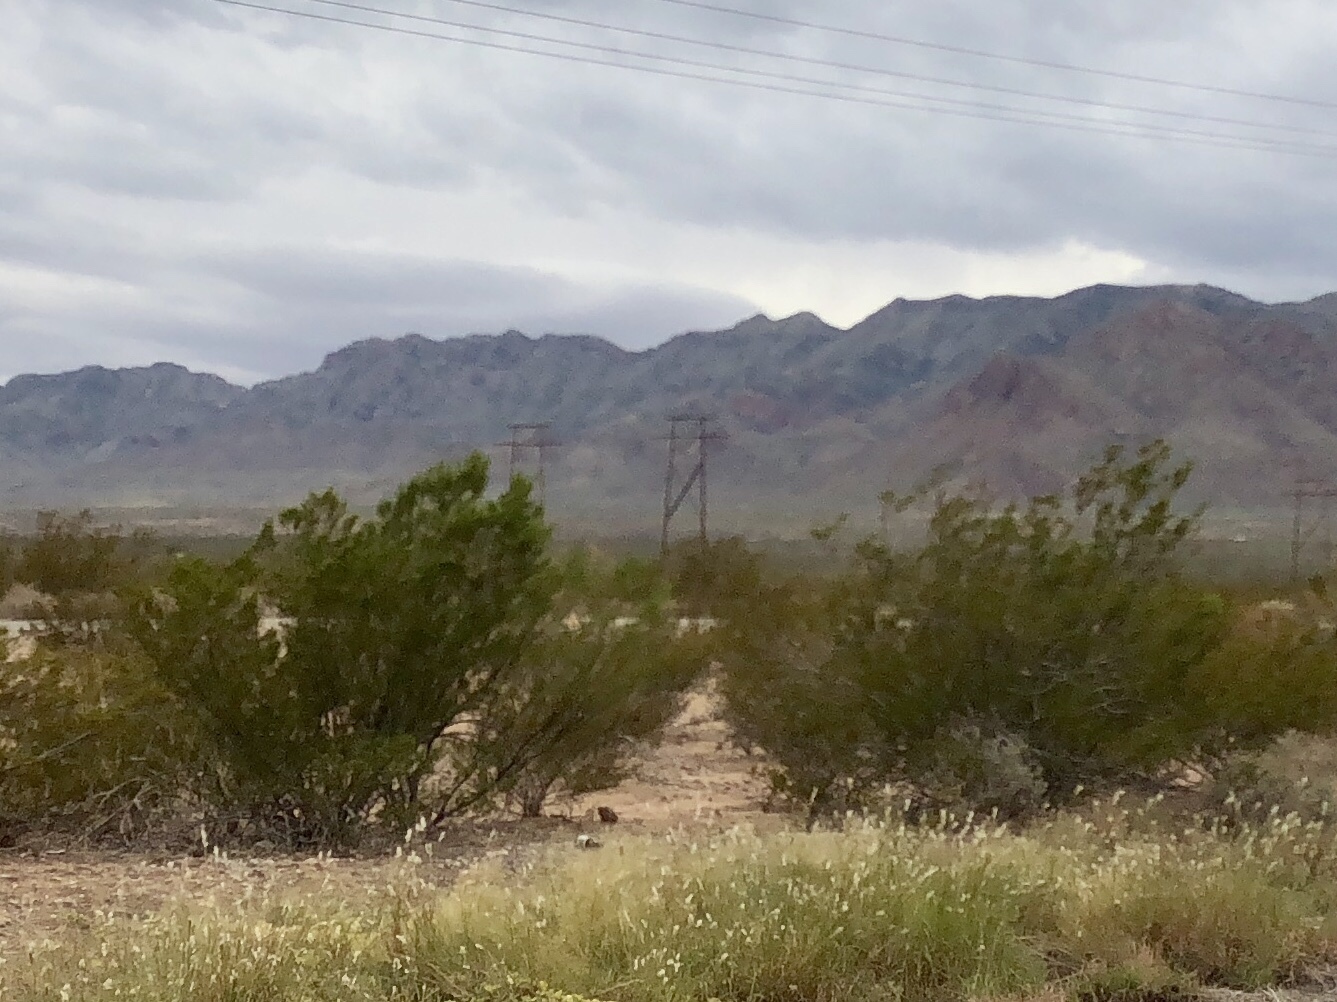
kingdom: Plantae
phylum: Tracheophyta
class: Magnoliopsida
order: Zygophyllales
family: Zygophyllaceae
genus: Larrea
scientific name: Larrea tridentata
